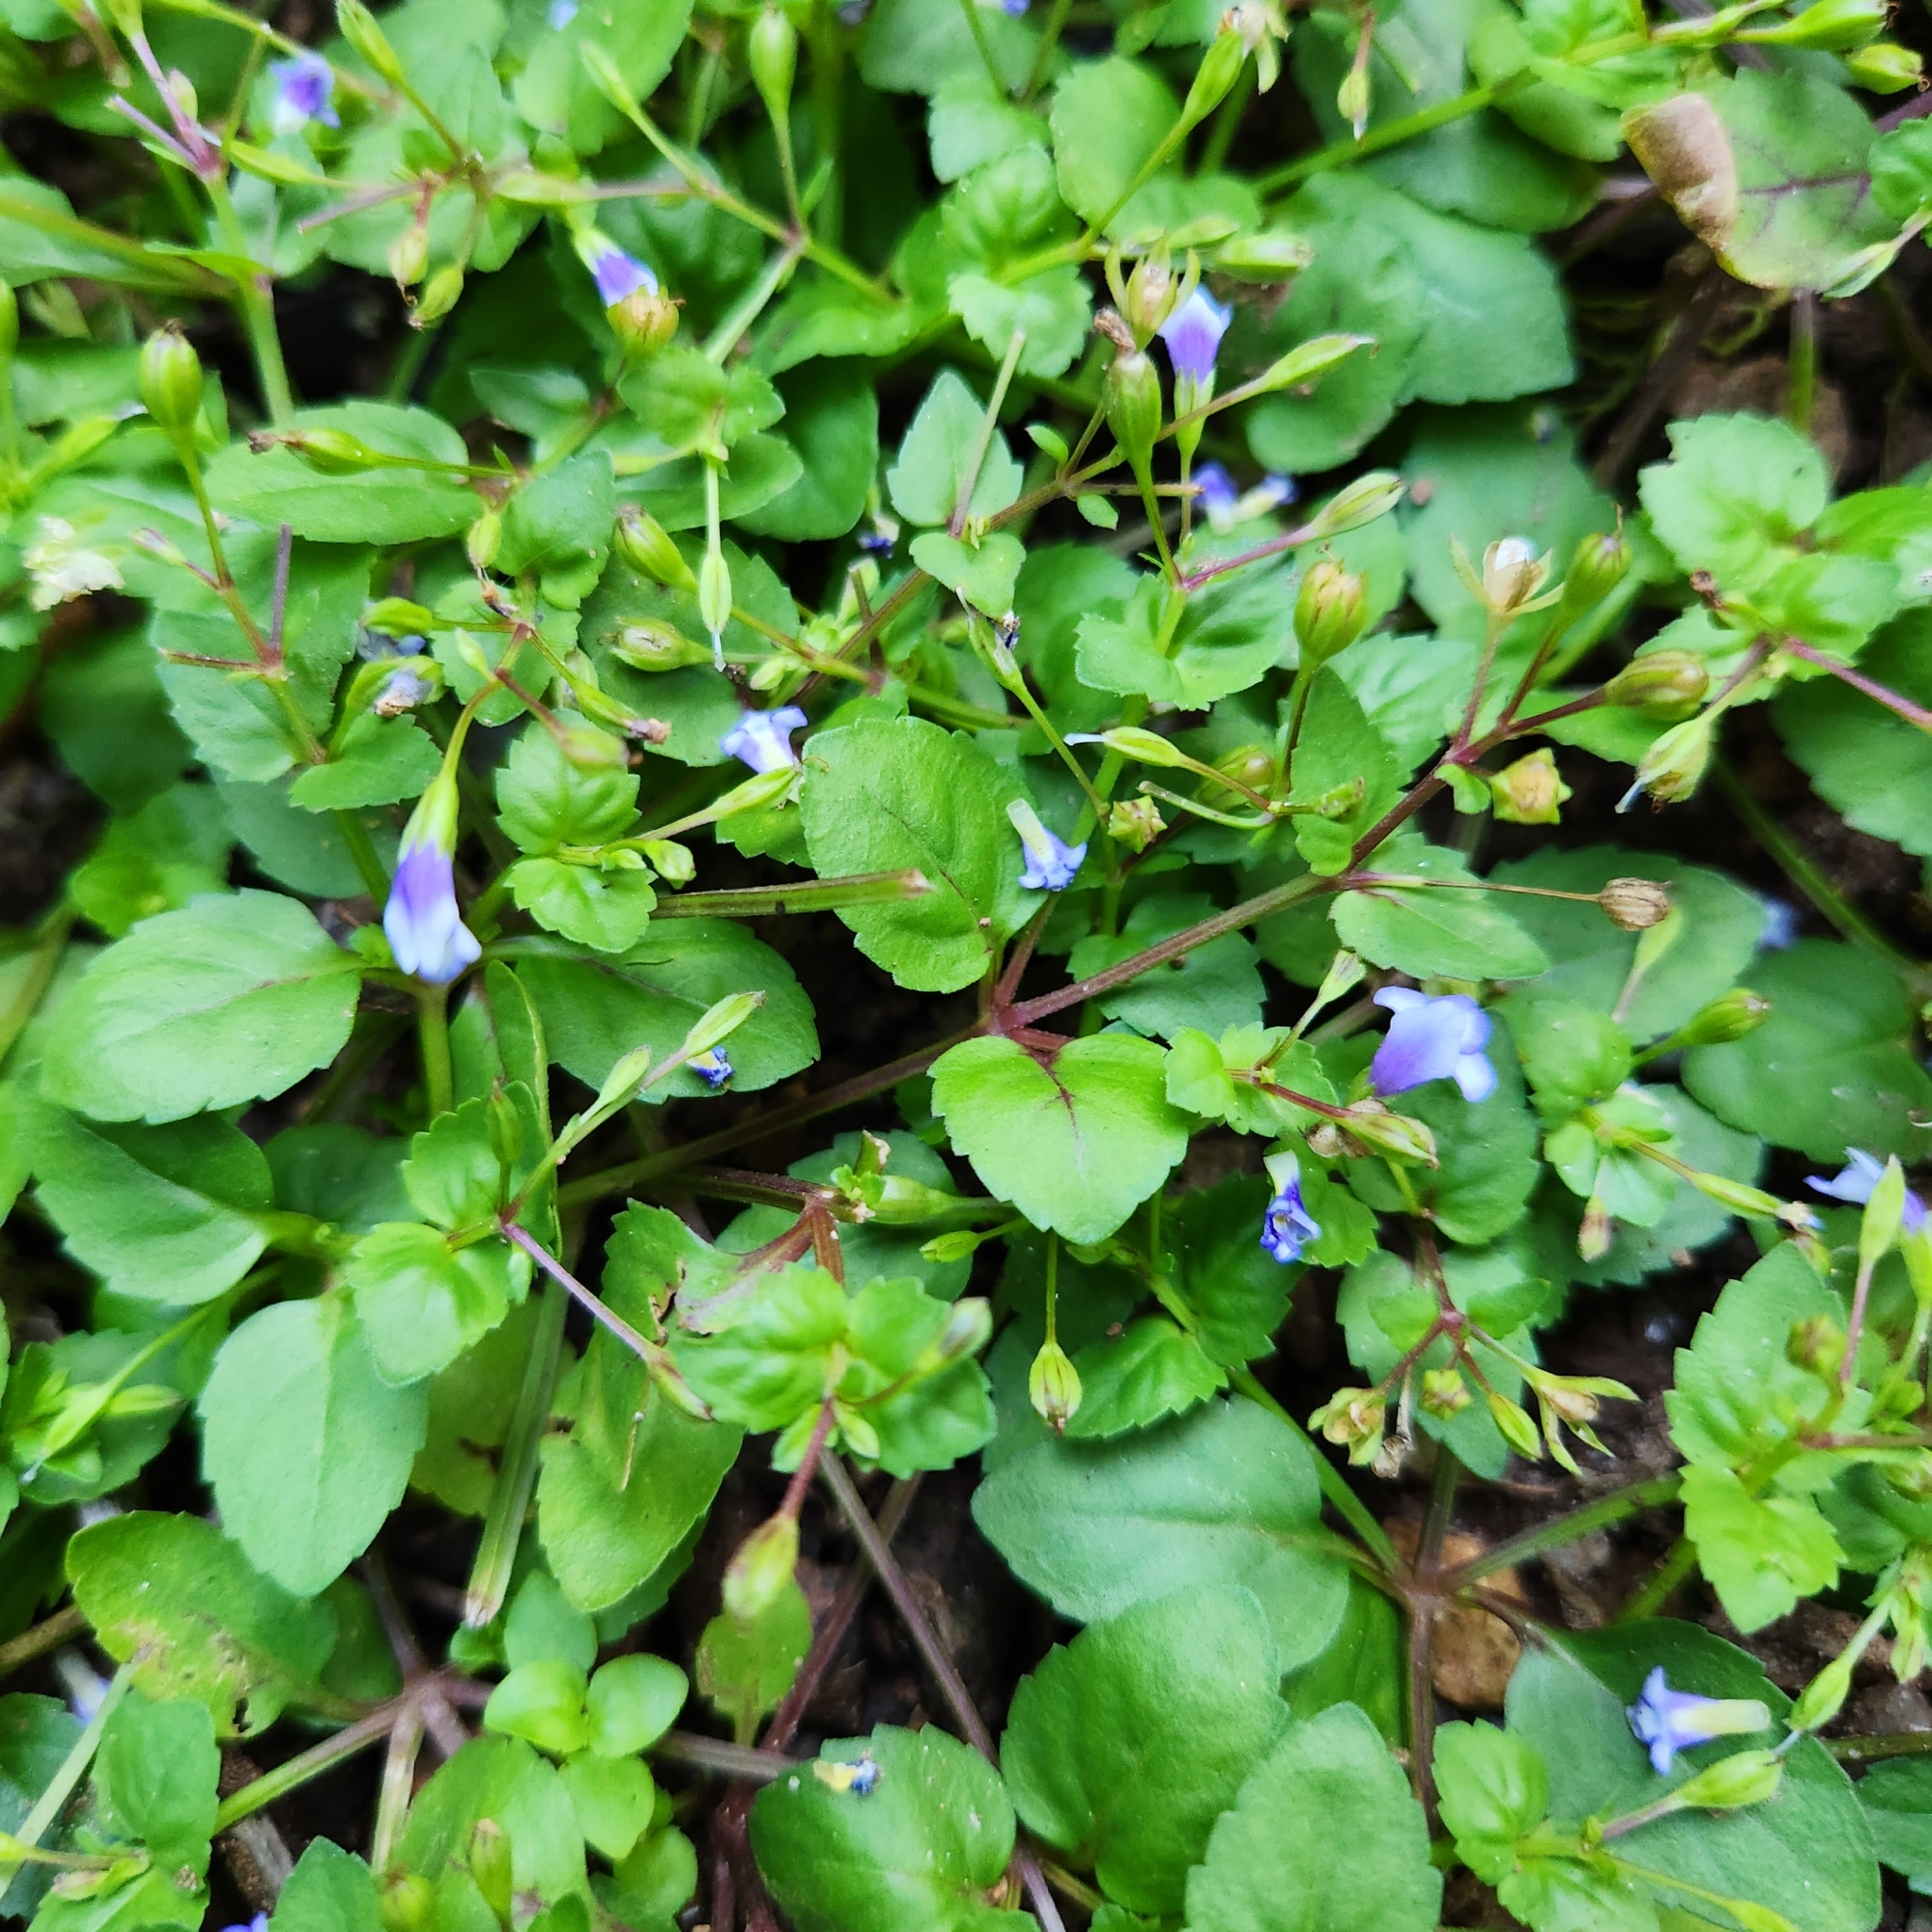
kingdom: Plantae
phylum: Tracheophyta
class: Magnoliopsida
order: Lamiales
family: Linderniaceae
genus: Torenia
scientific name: Torenia crustacea
